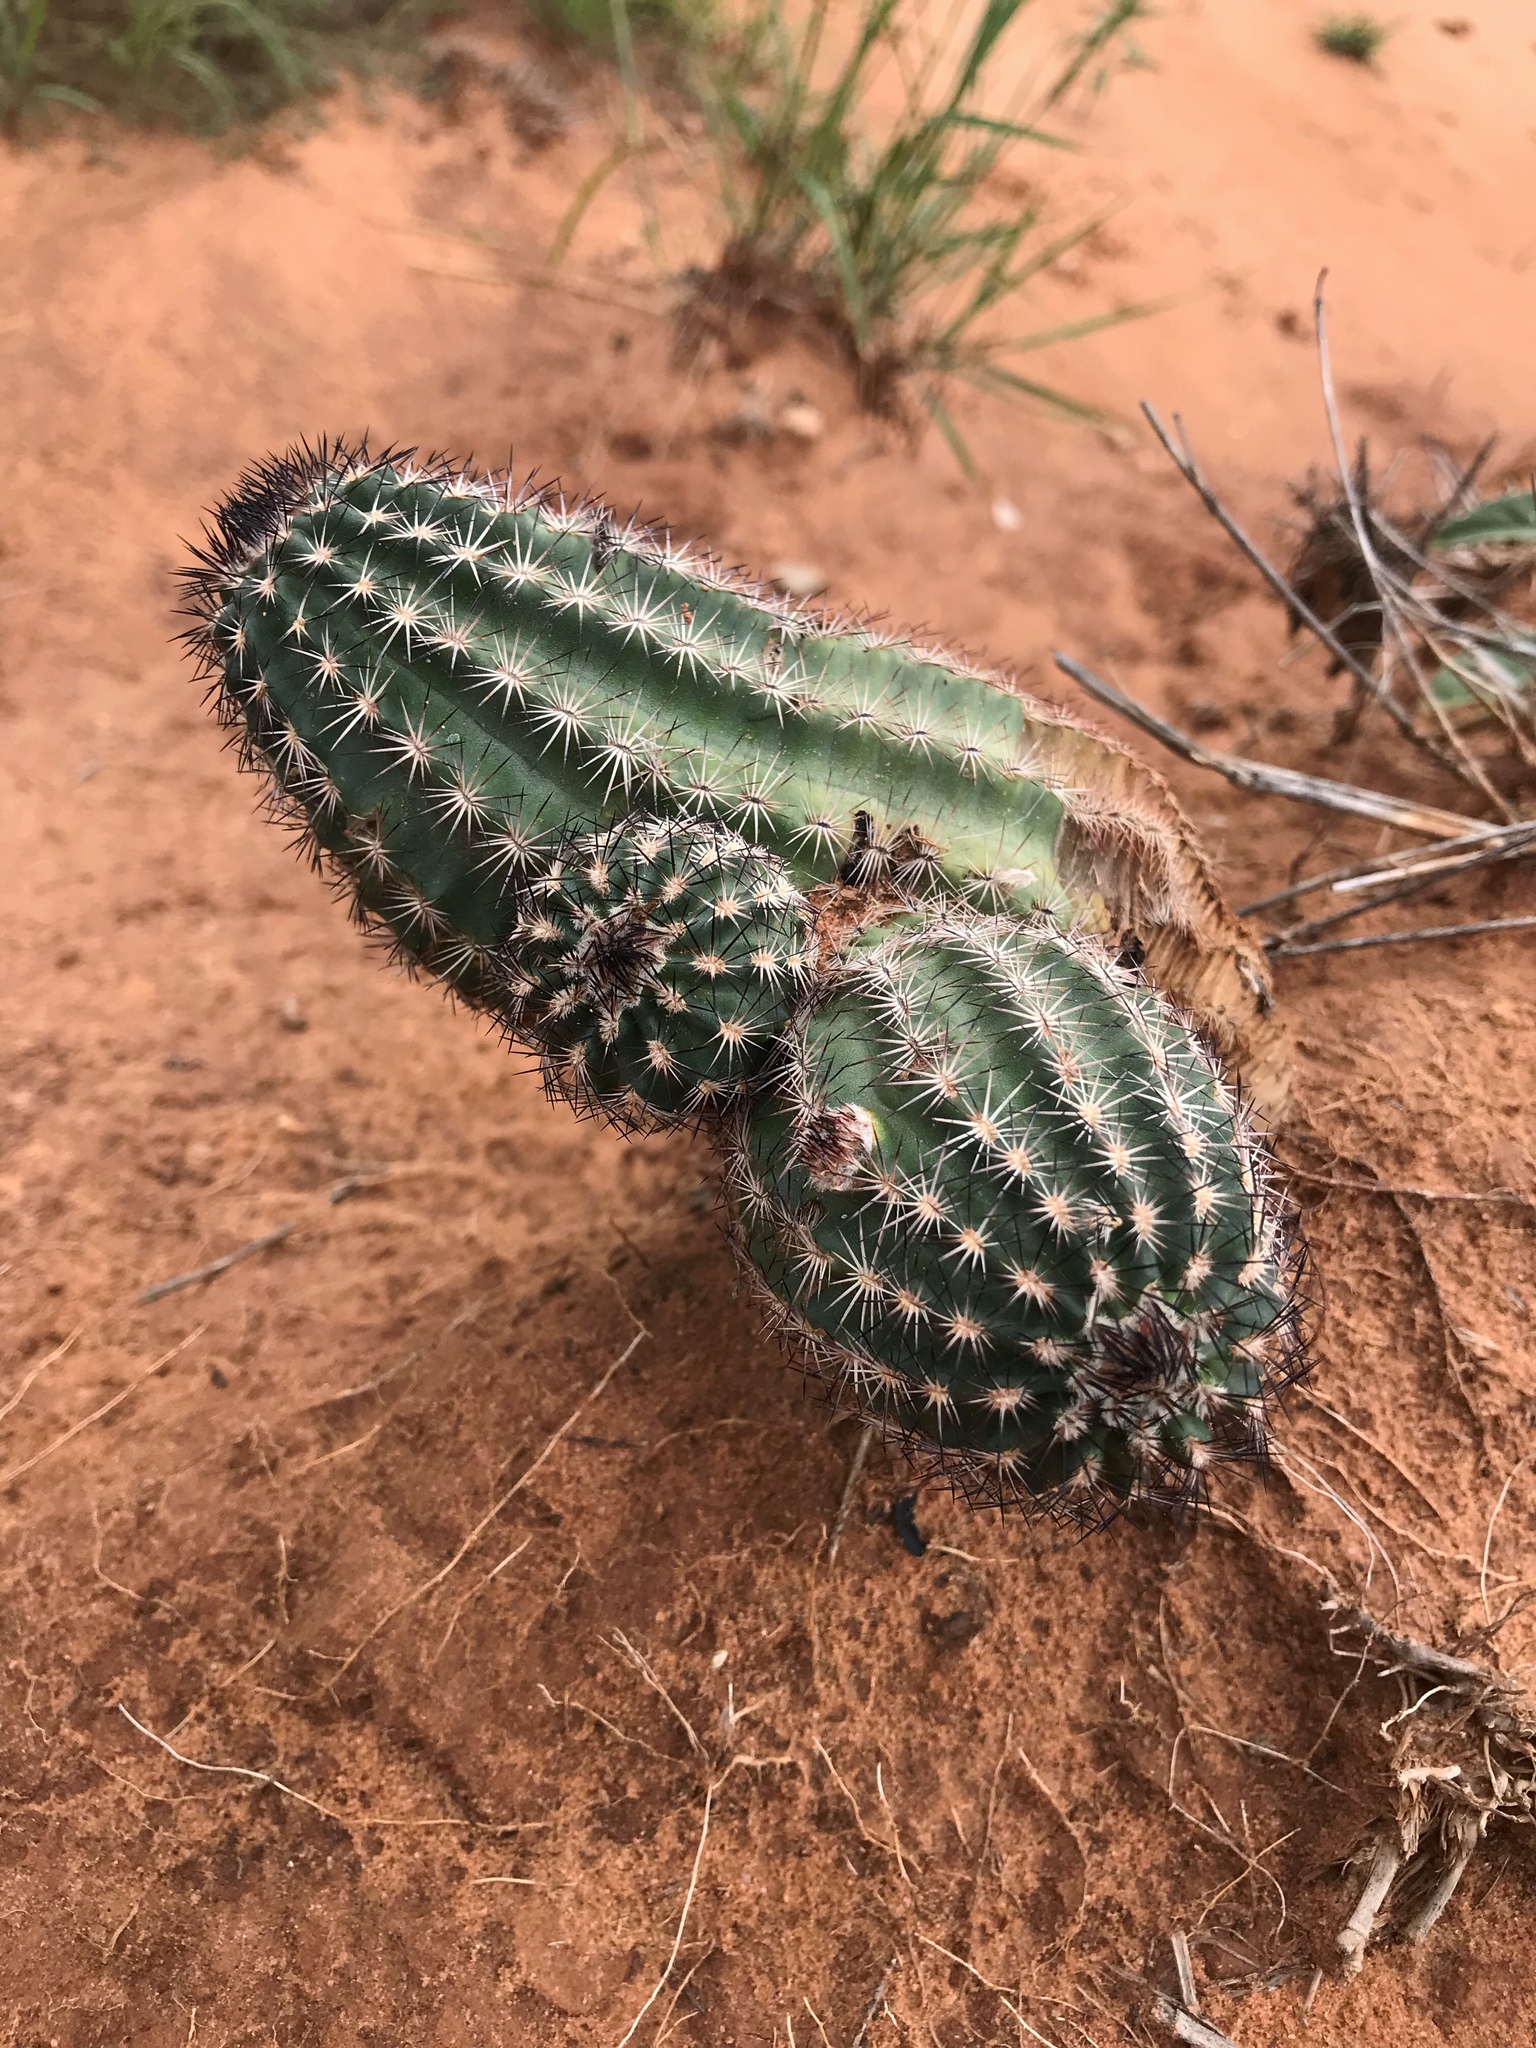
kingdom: Plantae
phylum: Tracheophyta
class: Magnoliopsida
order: Caryophyllales
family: Cactaceae
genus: Echinocereus
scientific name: Echinocereus reichenbachii
